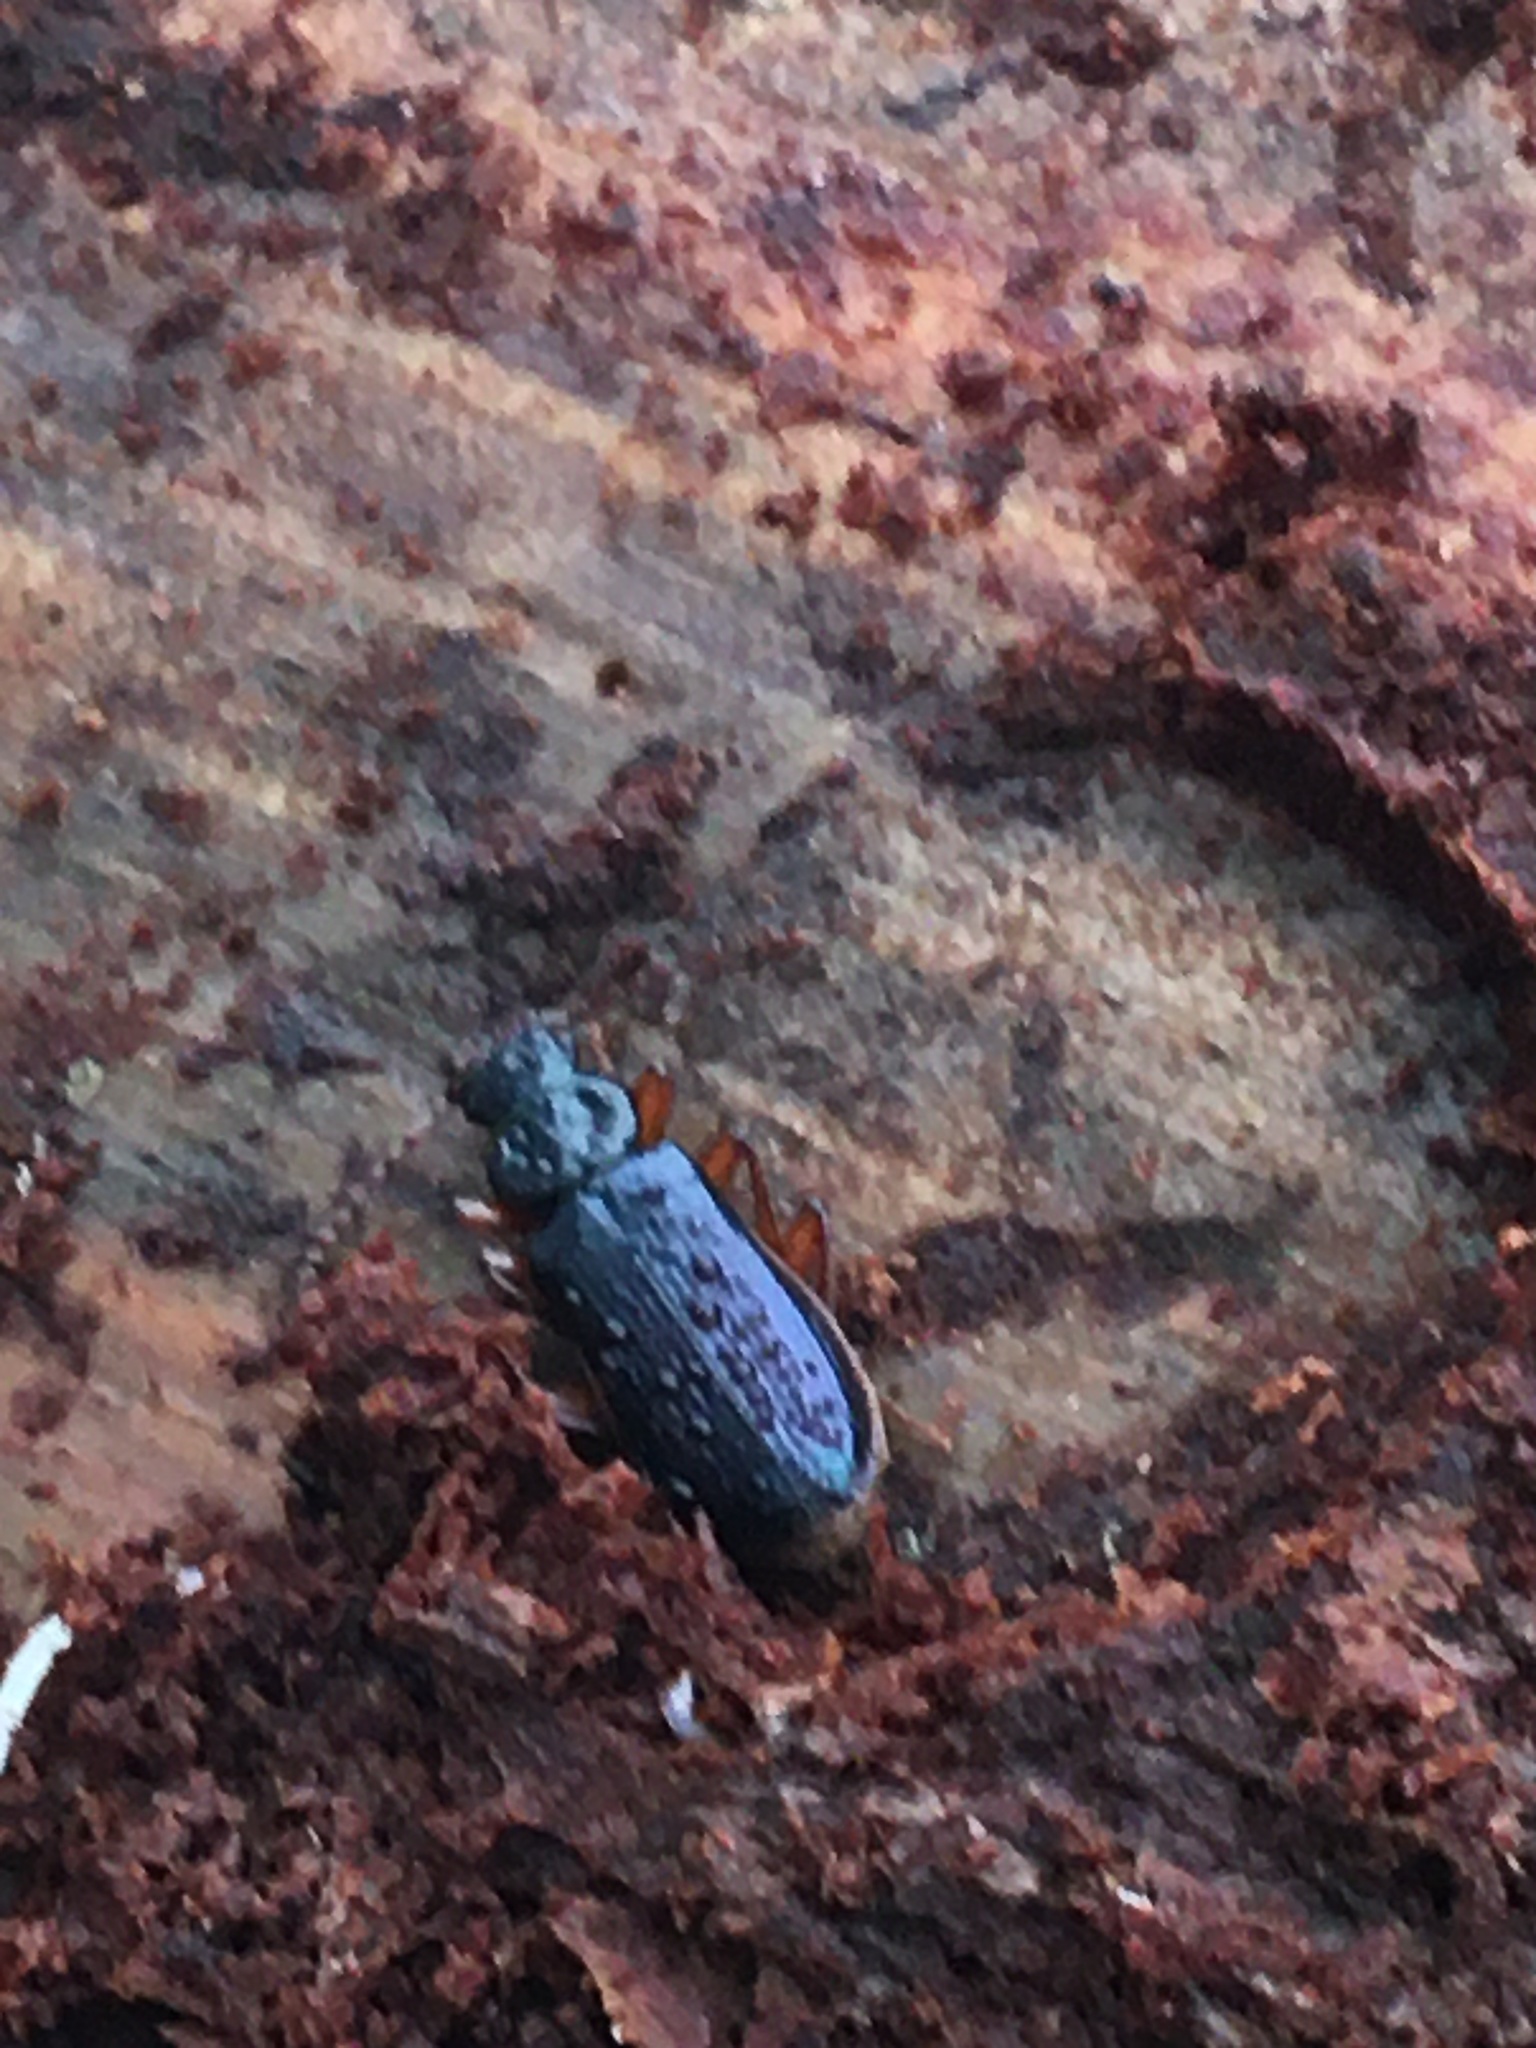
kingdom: Animalia
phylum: Arthropoda
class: Insecta
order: Coleoptera
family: Pythidae
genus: Pytho
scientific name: Pytho americanus
